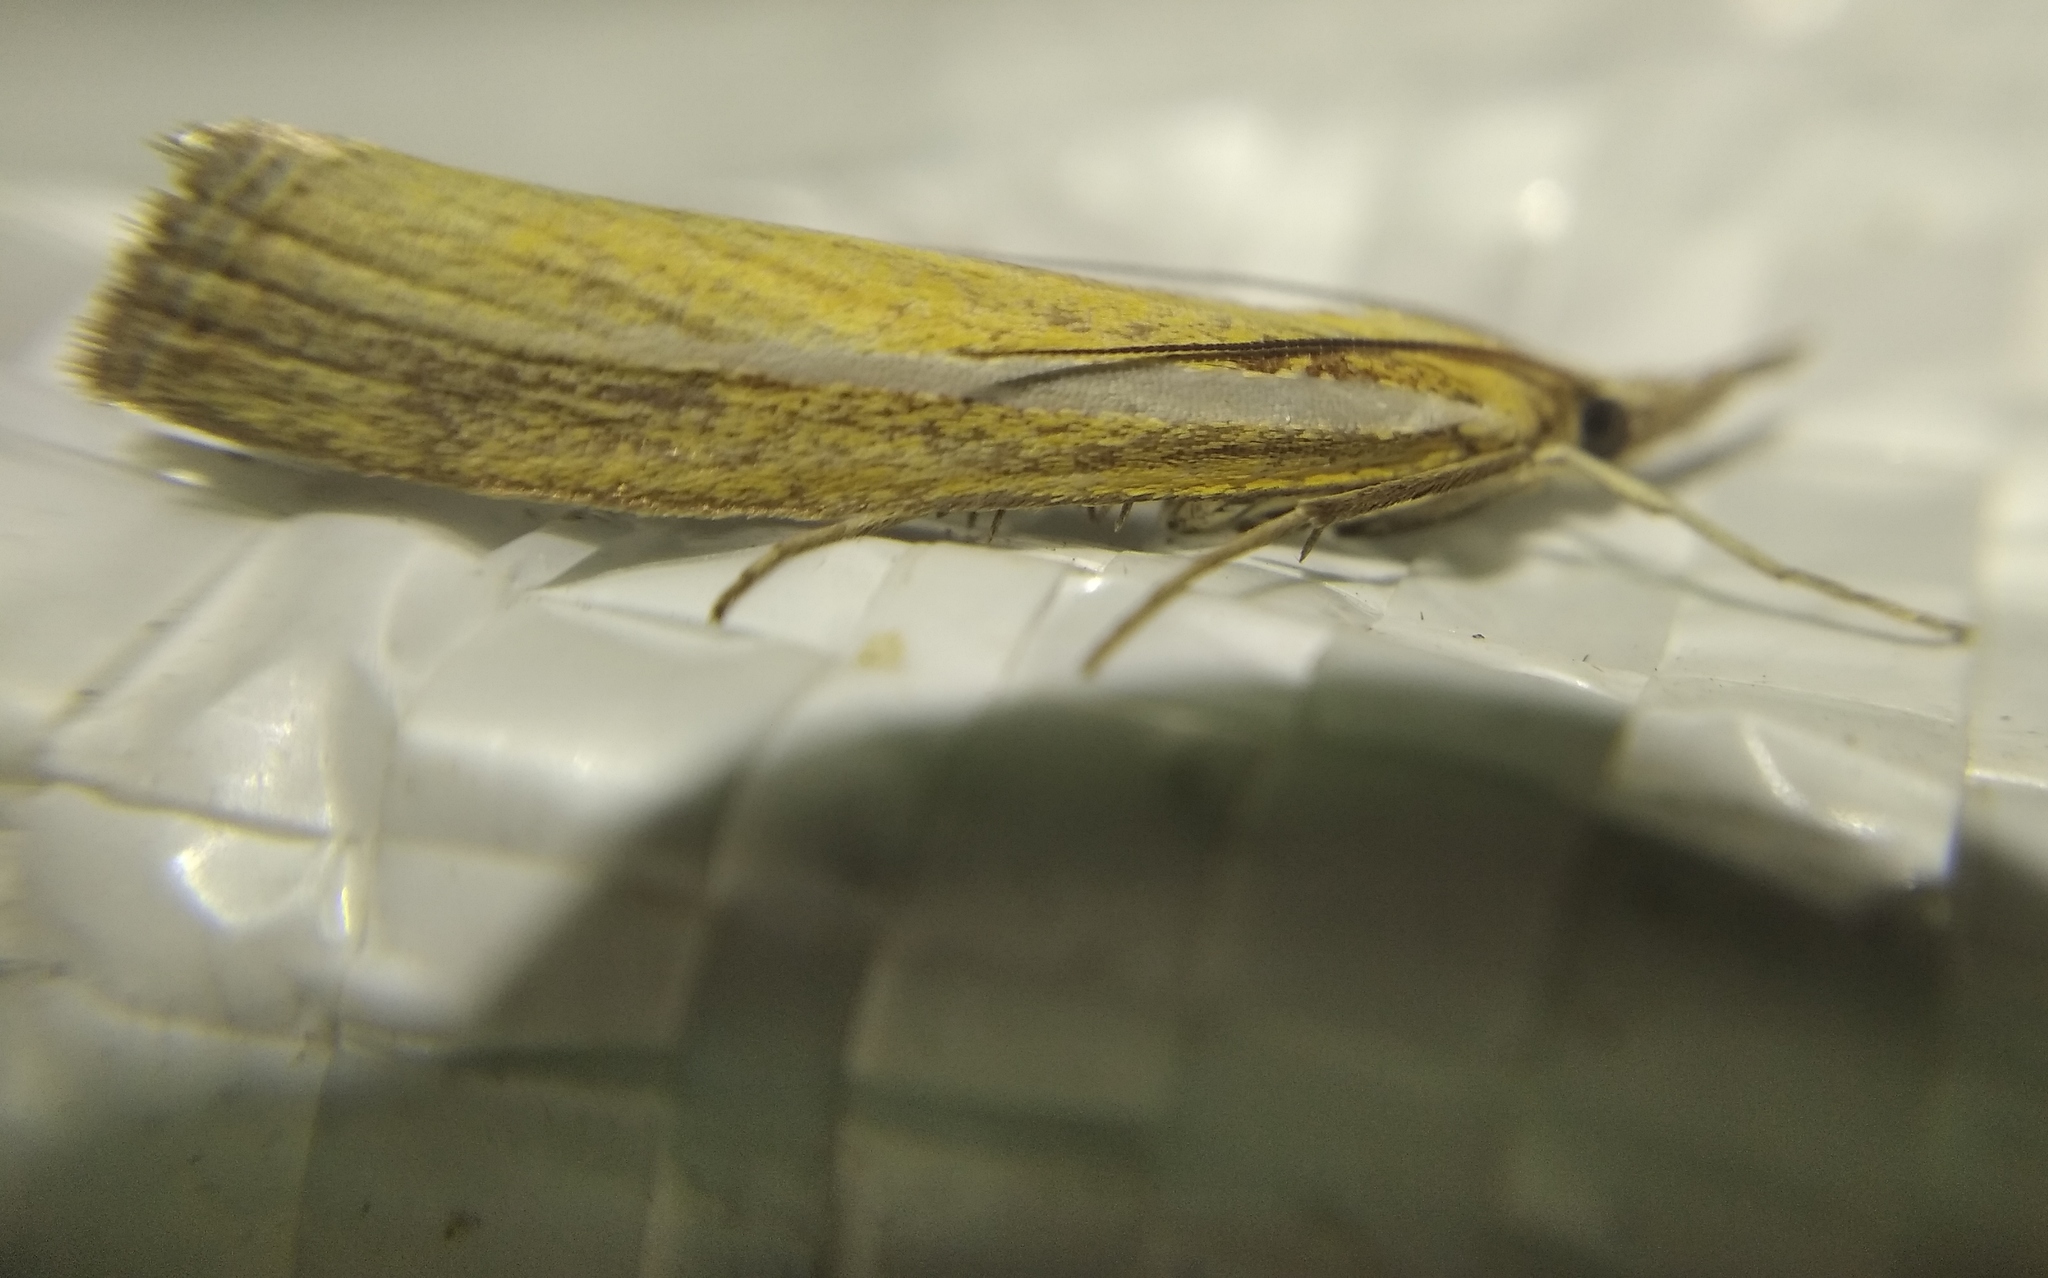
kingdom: Animalia
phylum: Arthropoda
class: Insecta
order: Lepidoptera
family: Crambidae
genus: Agriphila
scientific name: Agriphila tristellus
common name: Common grass-veneer
